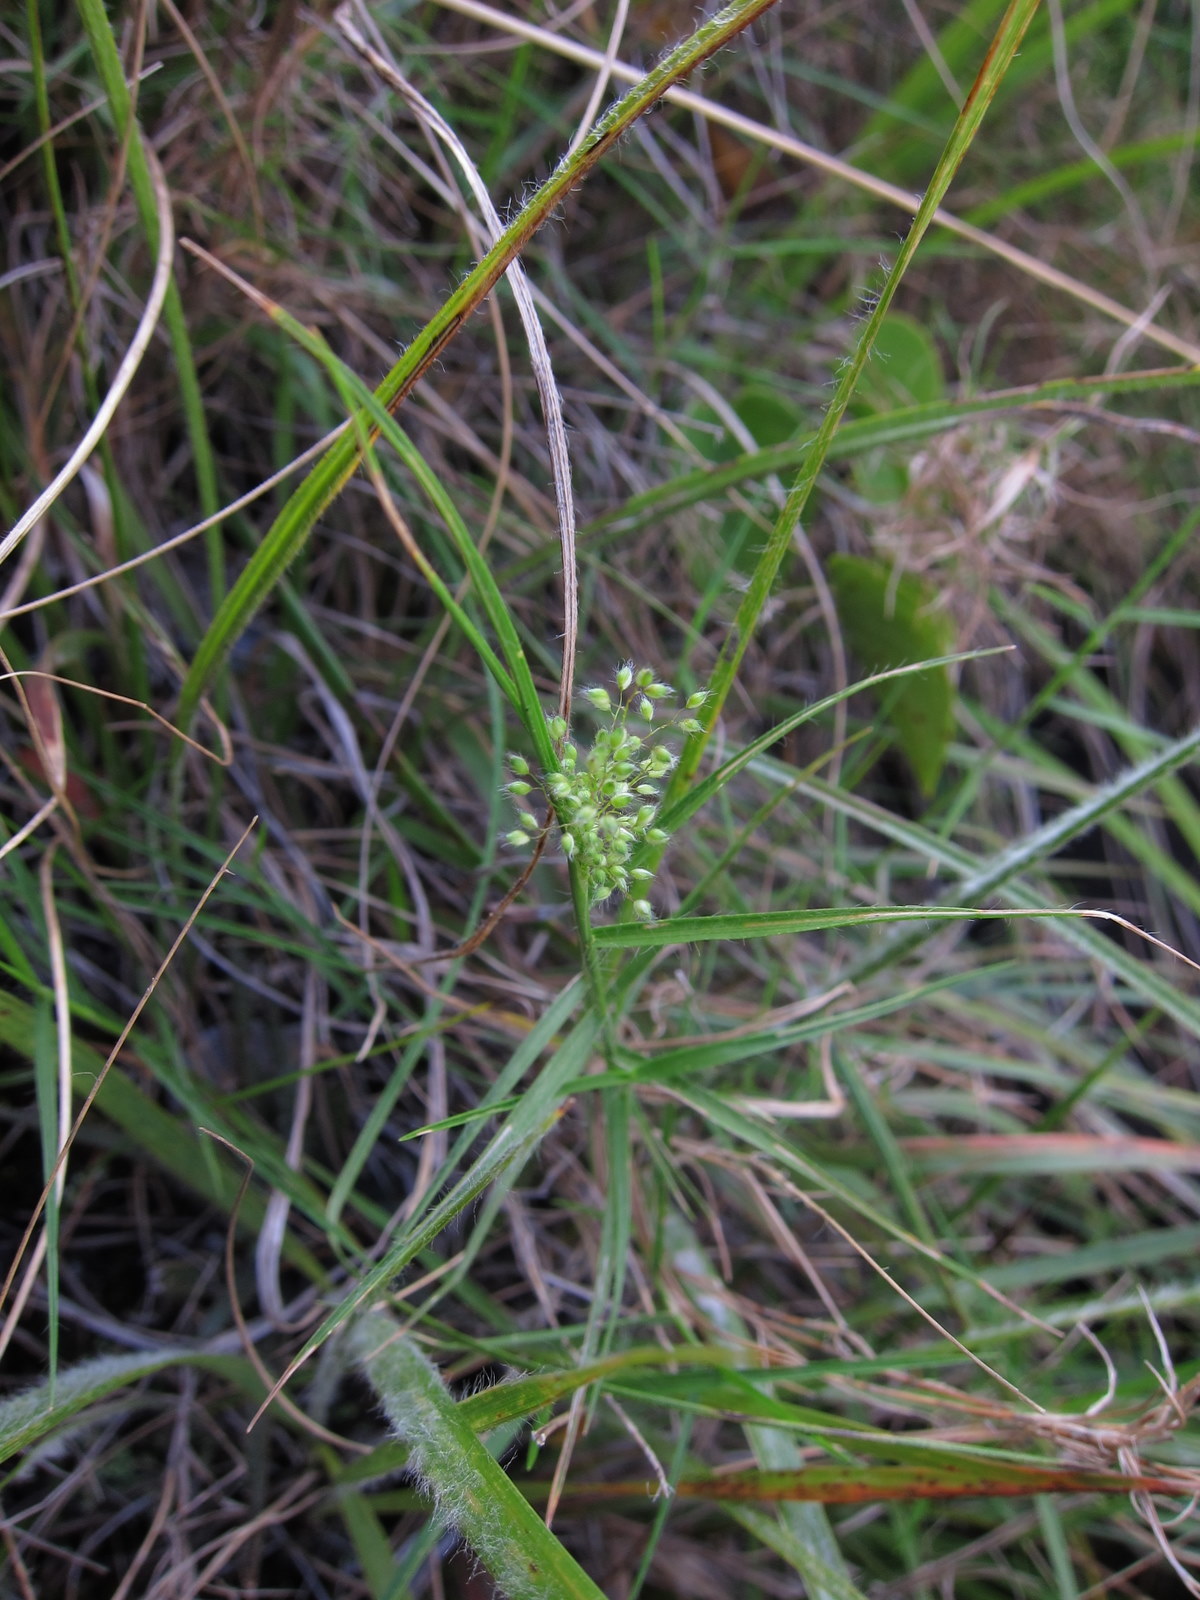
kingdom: Plantae
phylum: Tracheophyta
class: Liliopsida
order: Poales
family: Poaceae
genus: Panicum
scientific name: Panicum subhystrix
